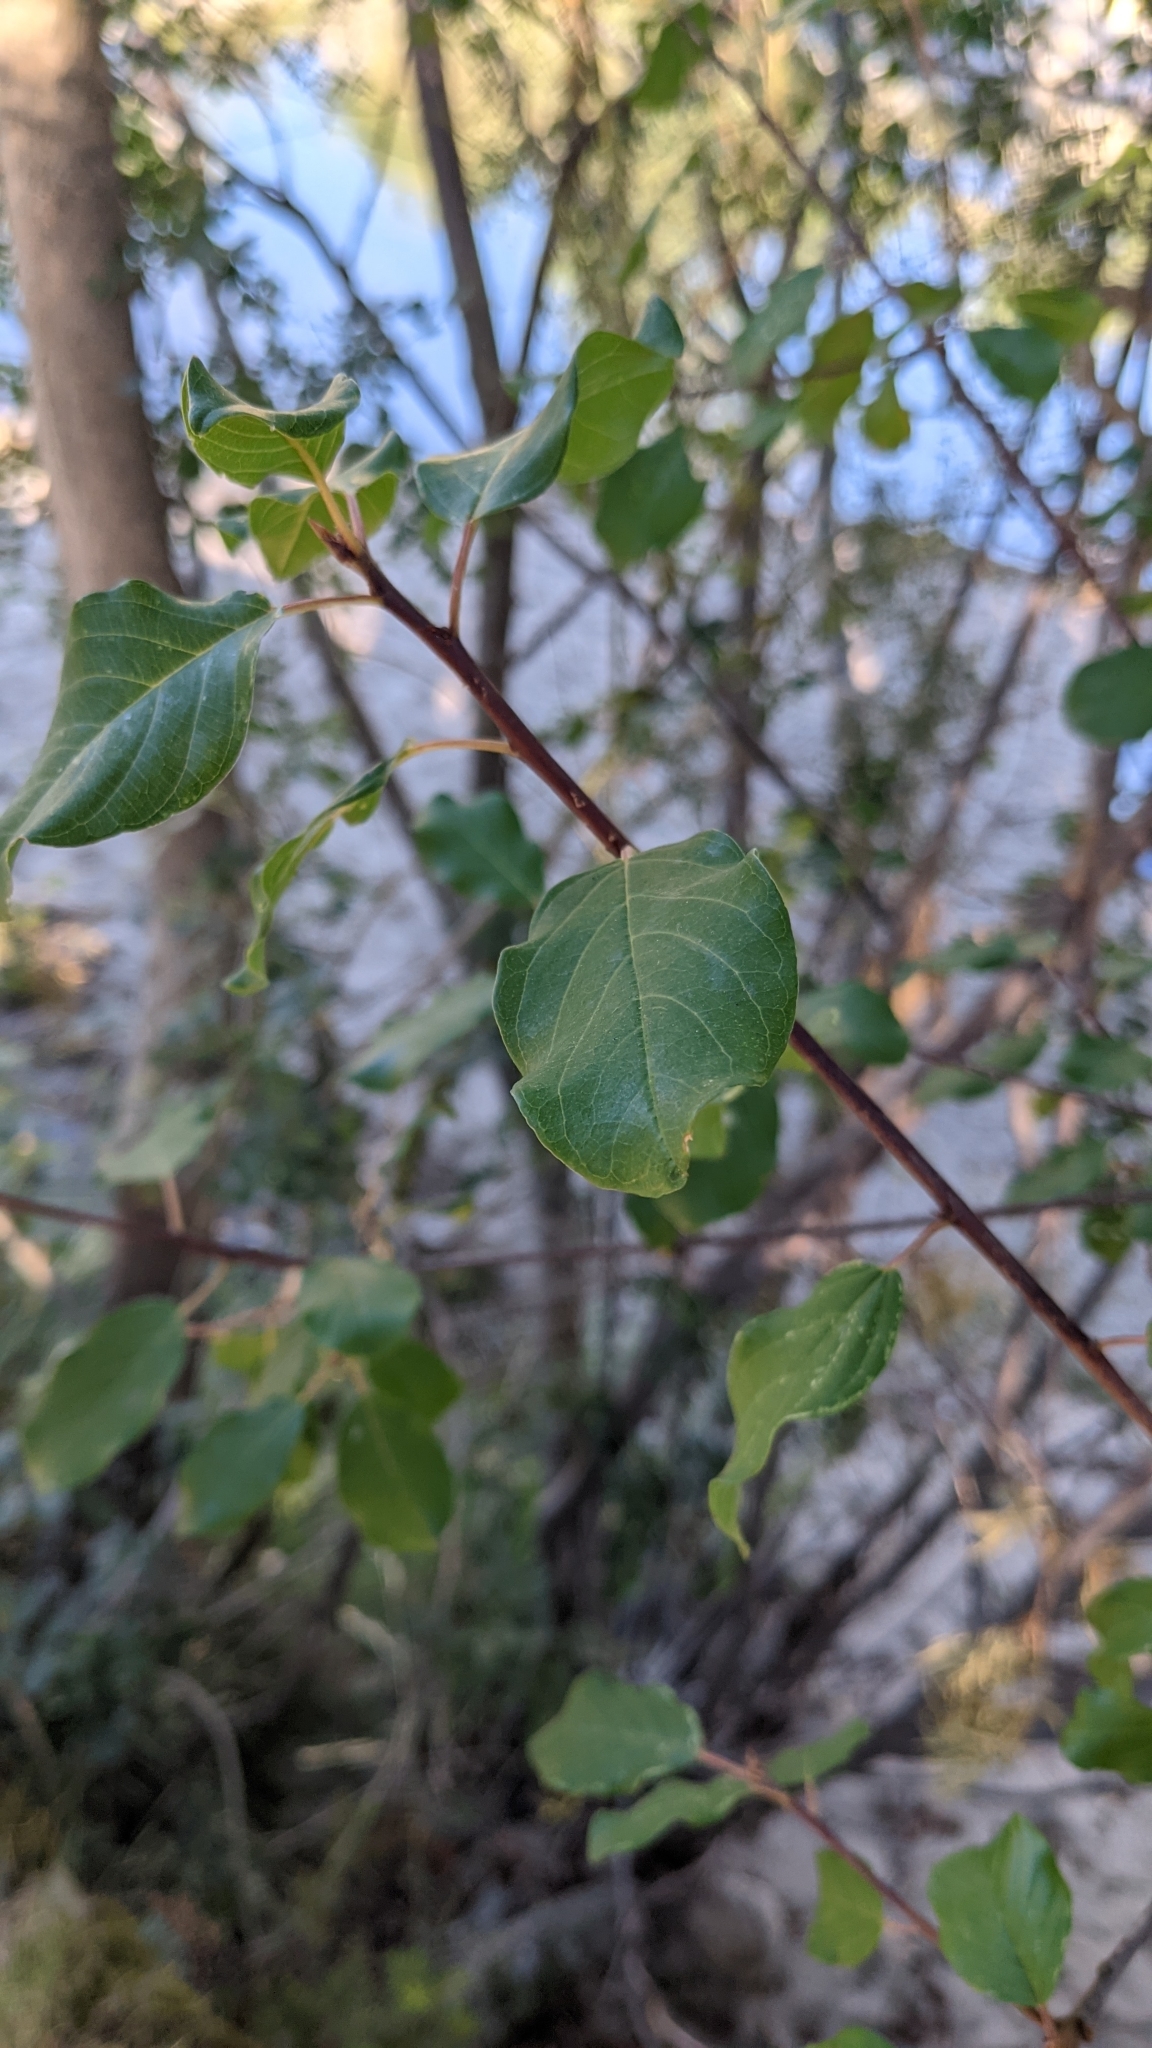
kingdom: Plantae
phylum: Tracheophyta
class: Magnoliopsida
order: Rosales
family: Rhamnaceae
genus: Frangula
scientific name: Frangula alnus
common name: Alder buckthorn
